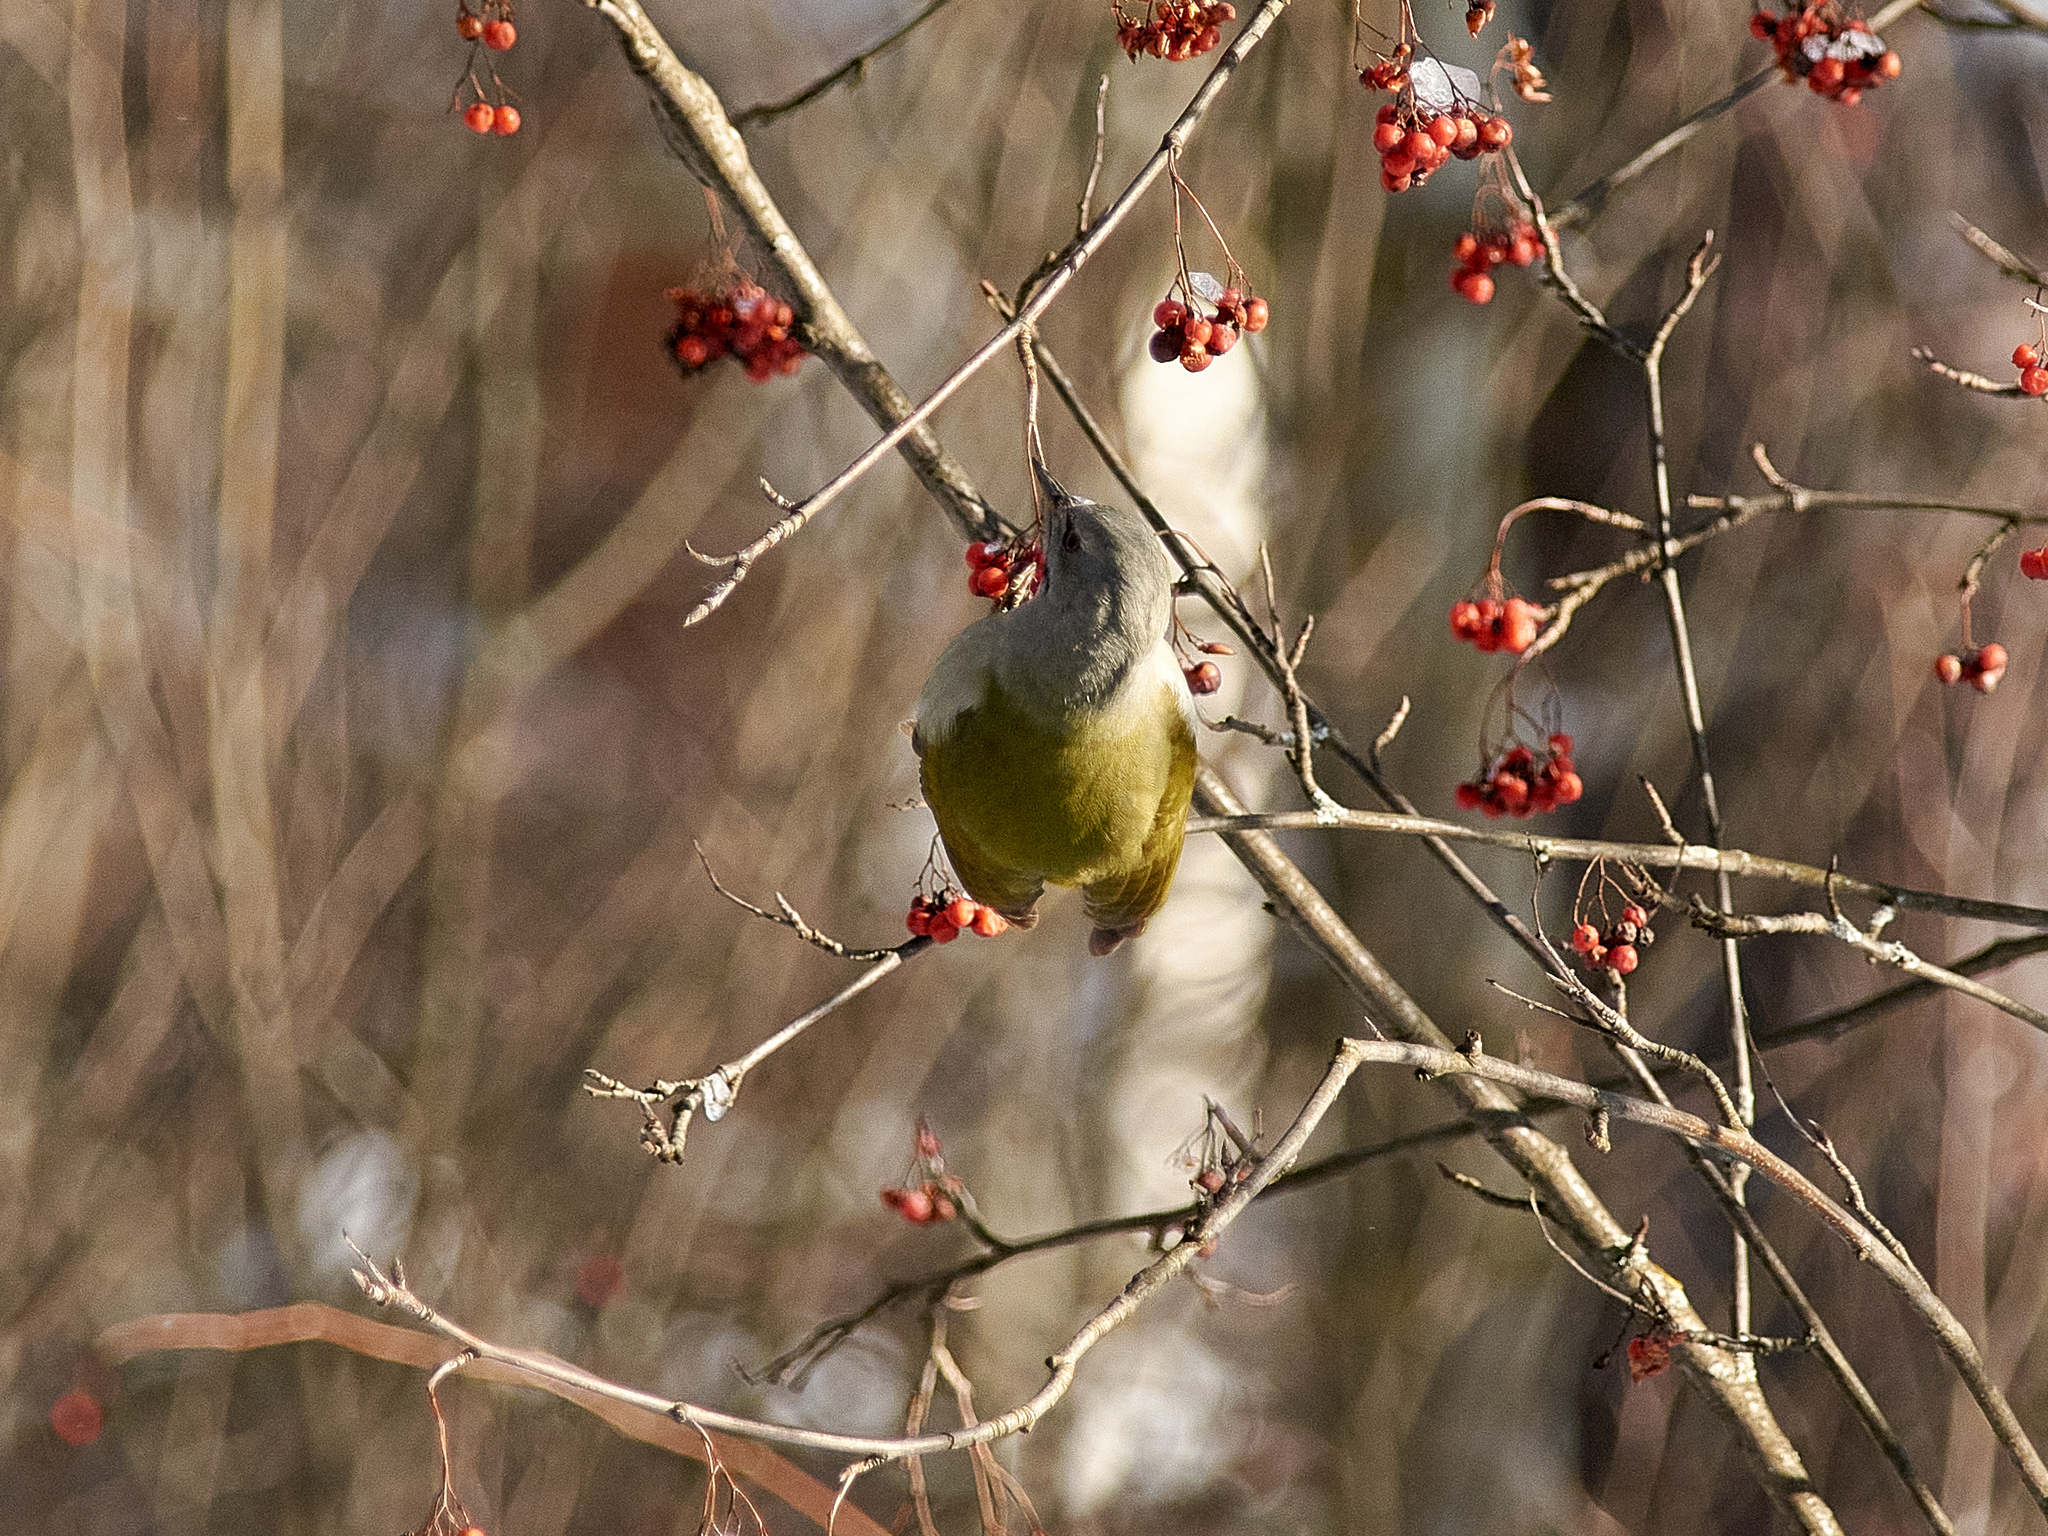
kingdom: Animalia
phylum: Chordata
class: Aves
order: Piciformes
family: Picidae
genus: Picus
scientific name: Picus canus
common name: Grey-headed woodpecker
